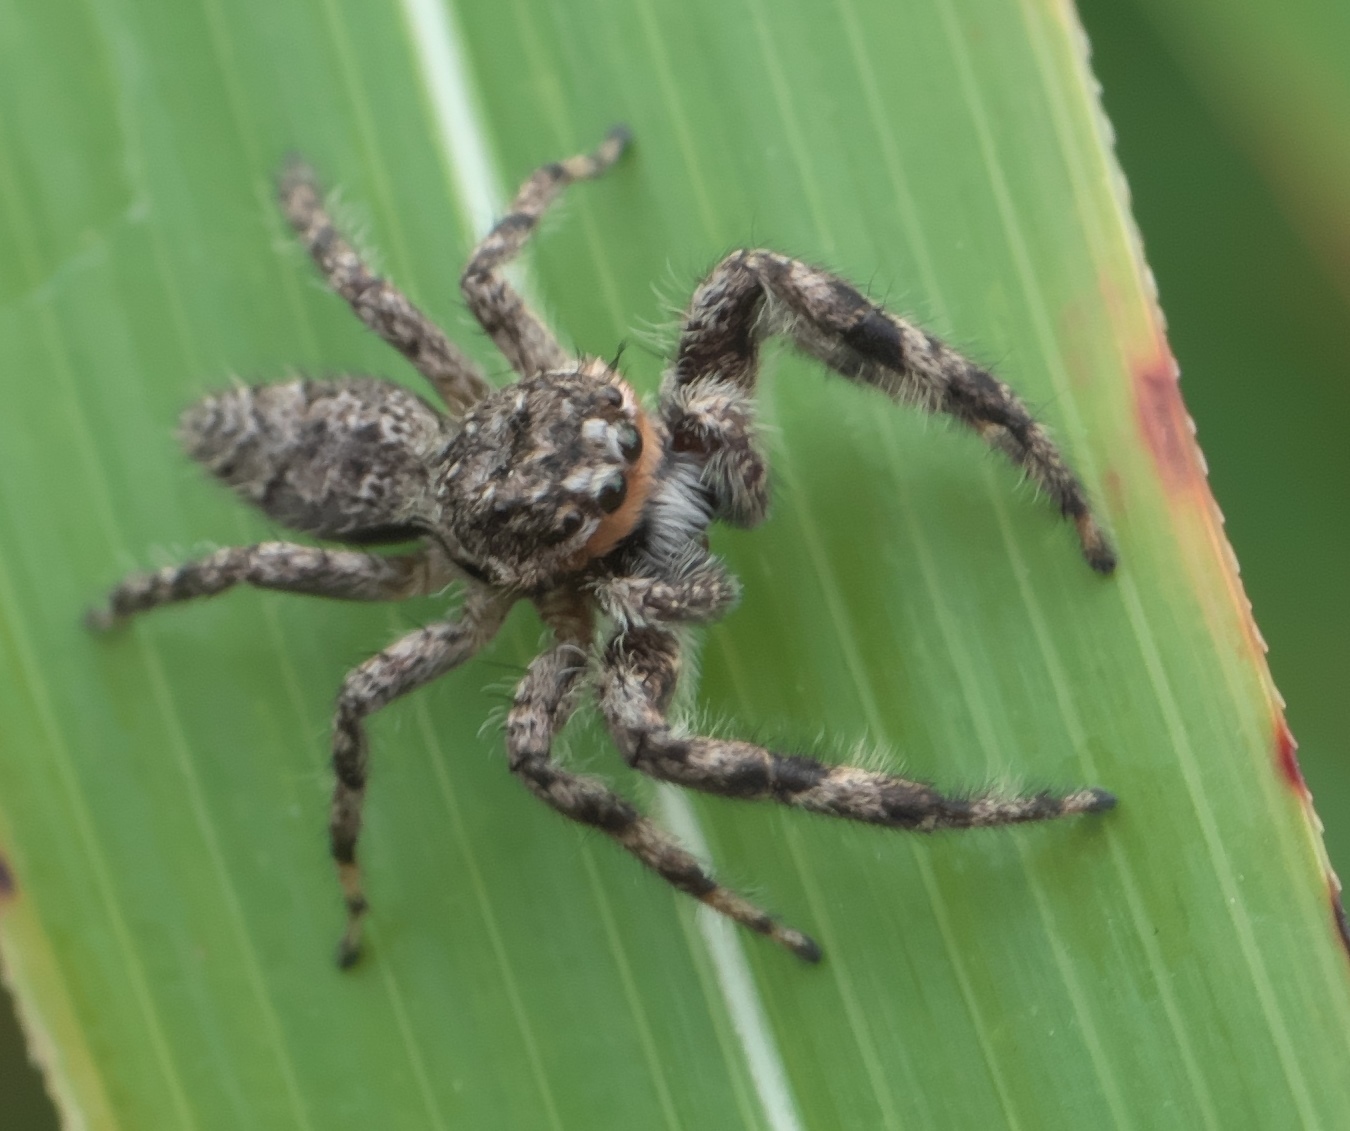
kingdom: Animalia
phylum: Arthropoda
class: Arachnida
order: Araneae
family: Salticidae
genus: Platycryptus
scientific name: Platycryptus undatus
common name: Tan jumping spider
